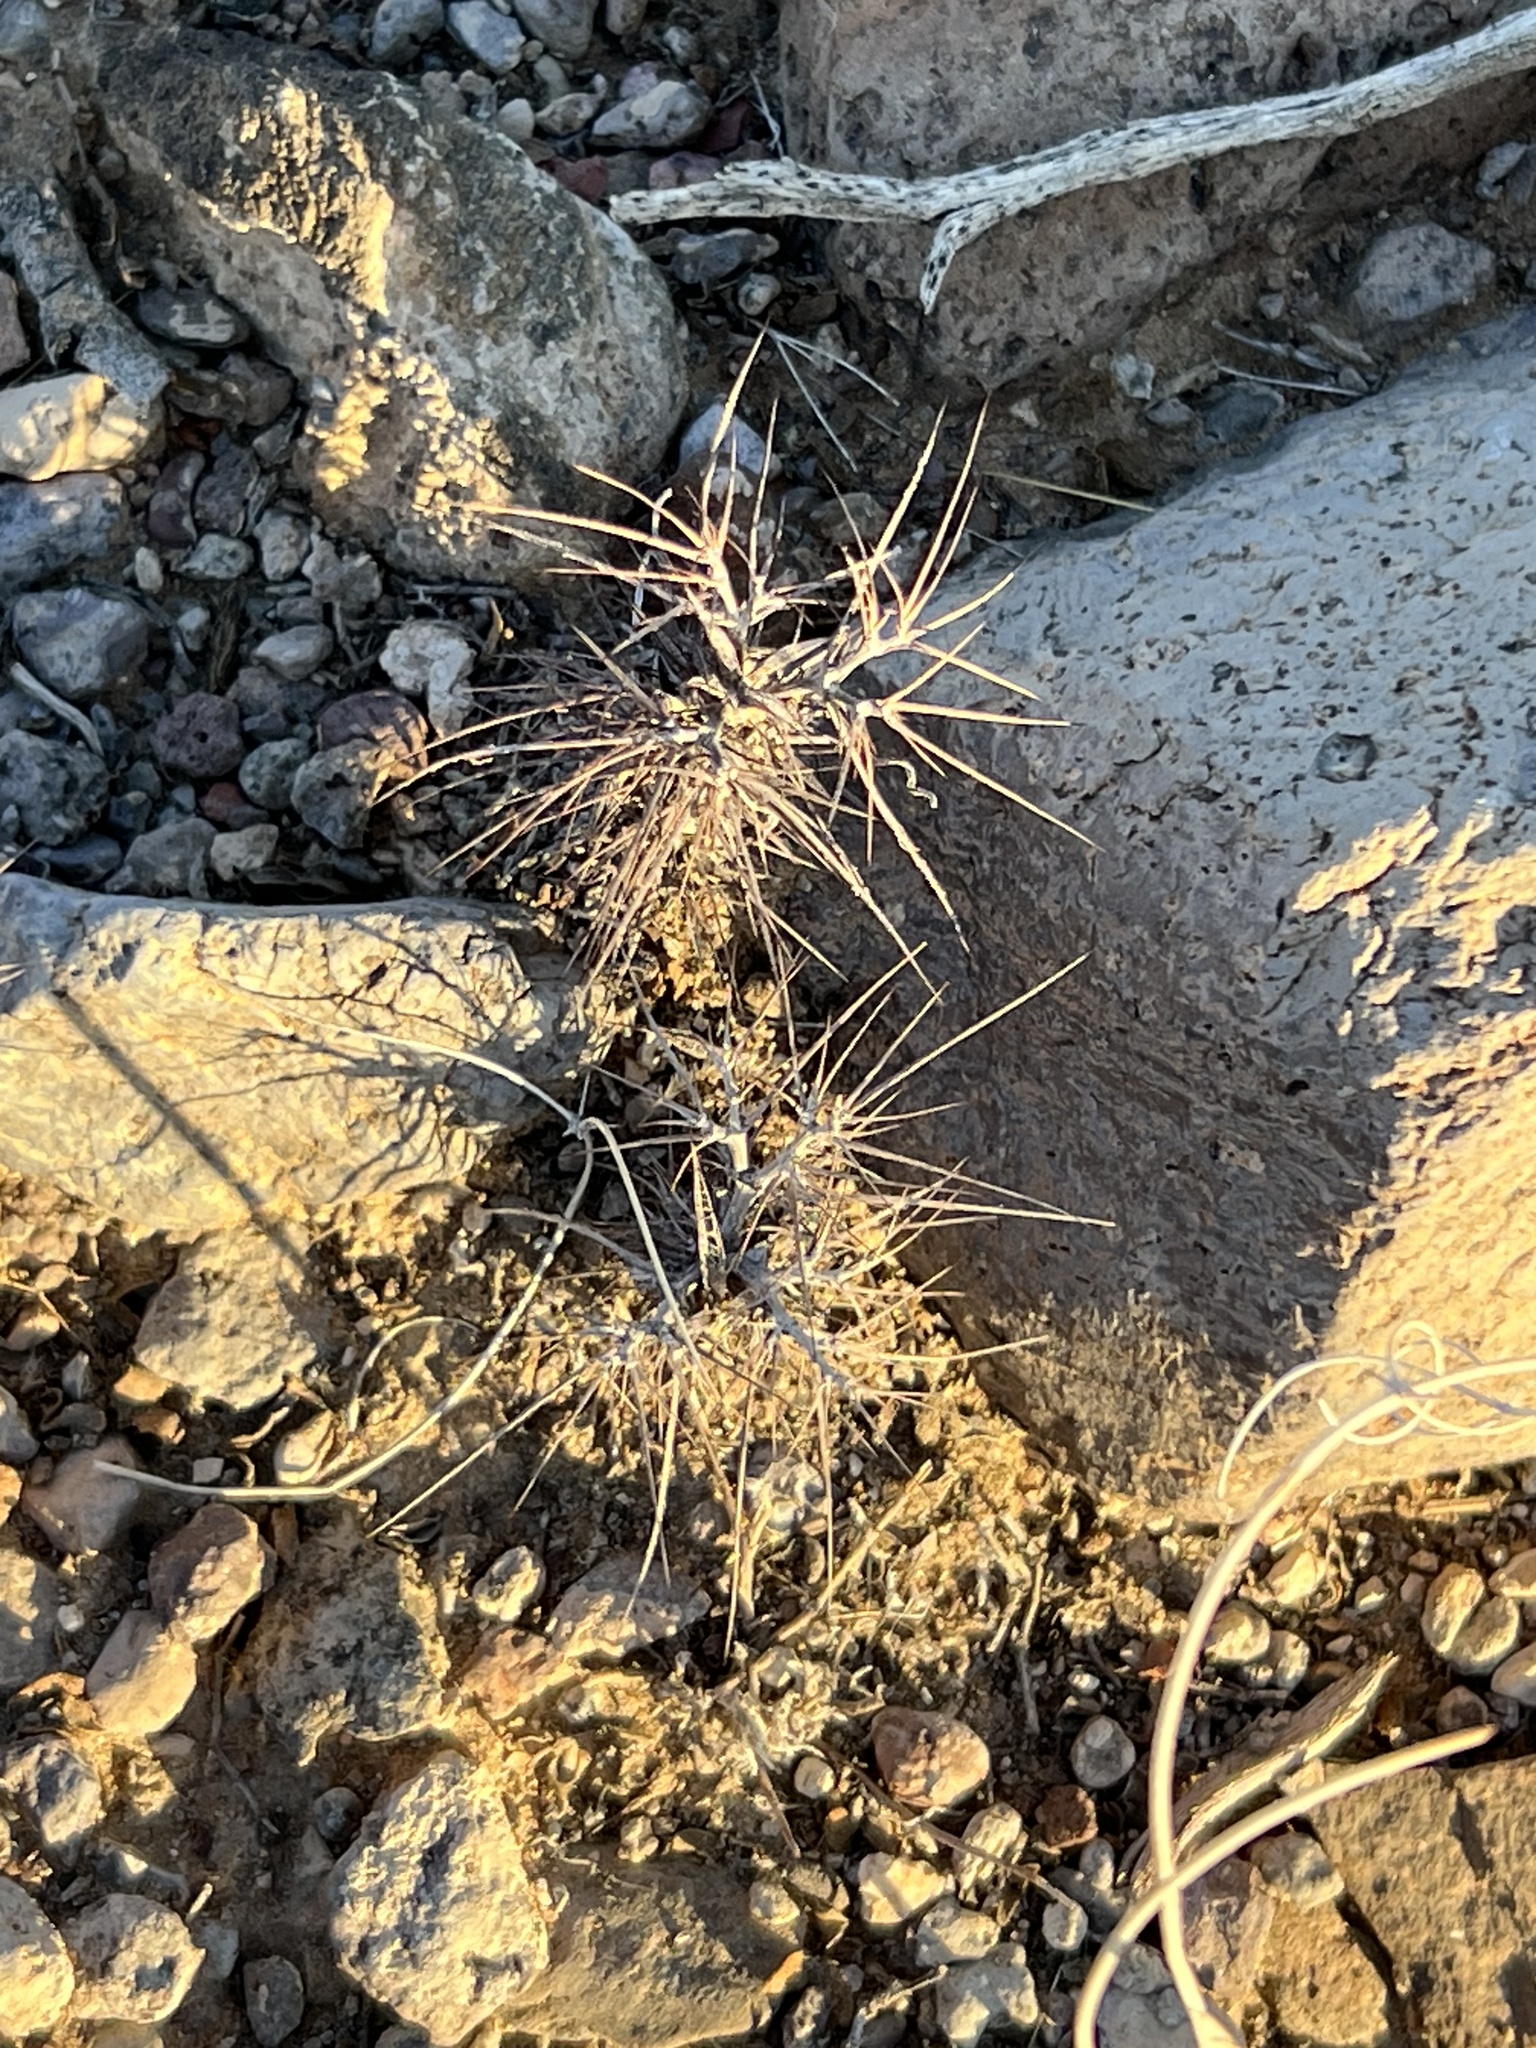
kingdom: Plantae
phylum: Tracheophyta
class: Magnoliopsida
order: Caryophyllales
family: Polygonaceae
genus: Chorizanthe
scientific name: Chorizanthe rigida
